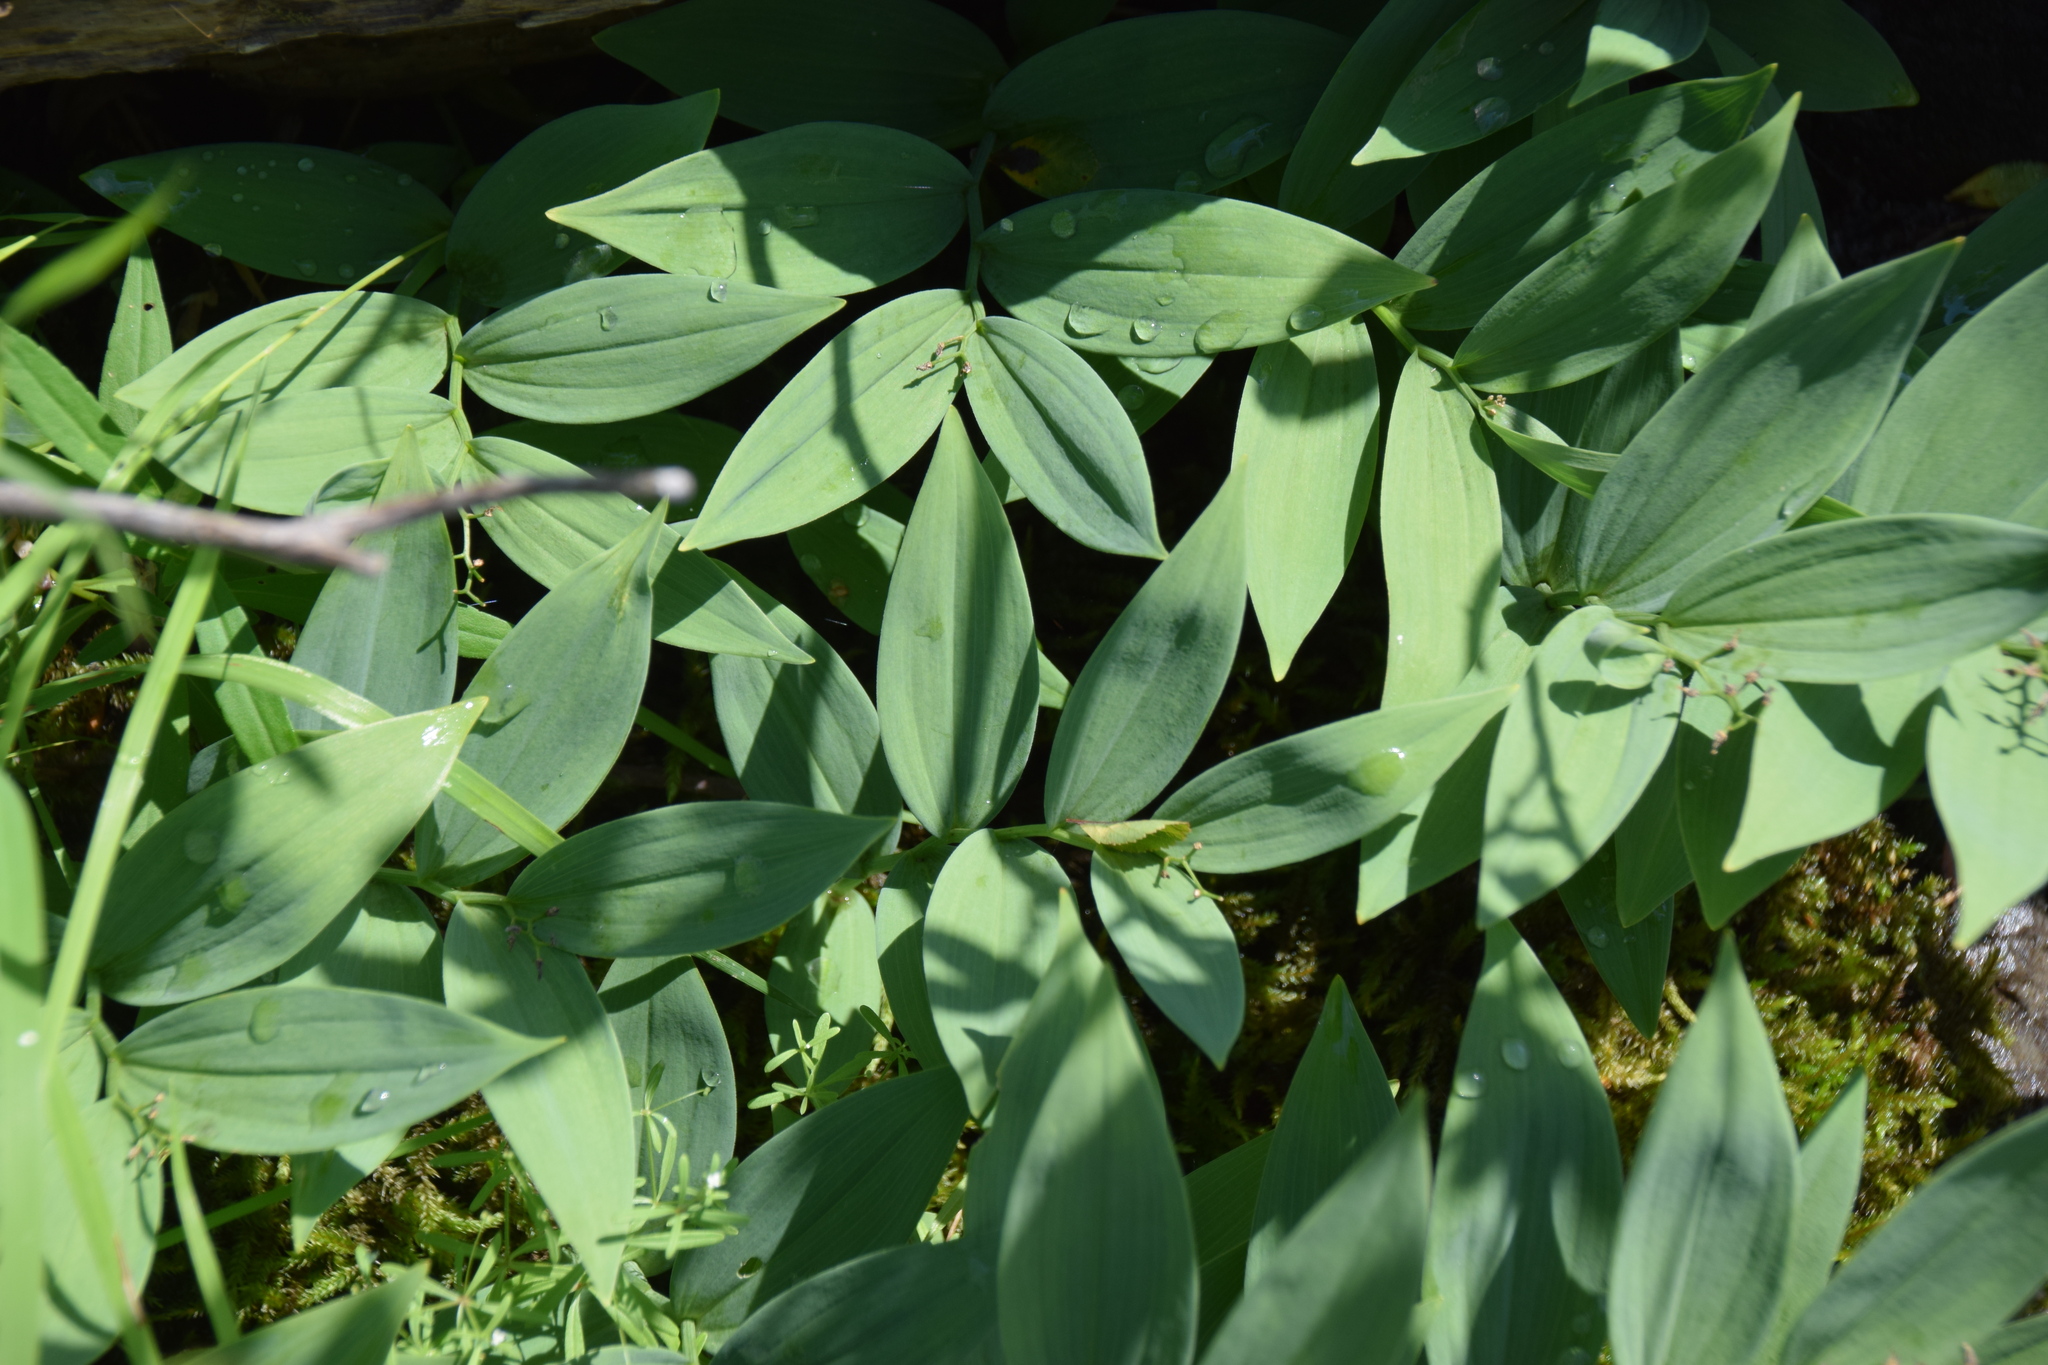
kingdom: Plantae
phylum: Tracheophyta
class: Liliopsida
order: Asparagales
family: Asparagaceae
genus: Maianthemum
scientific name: Maianthemum stellatum
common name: Little false solomon's seal
